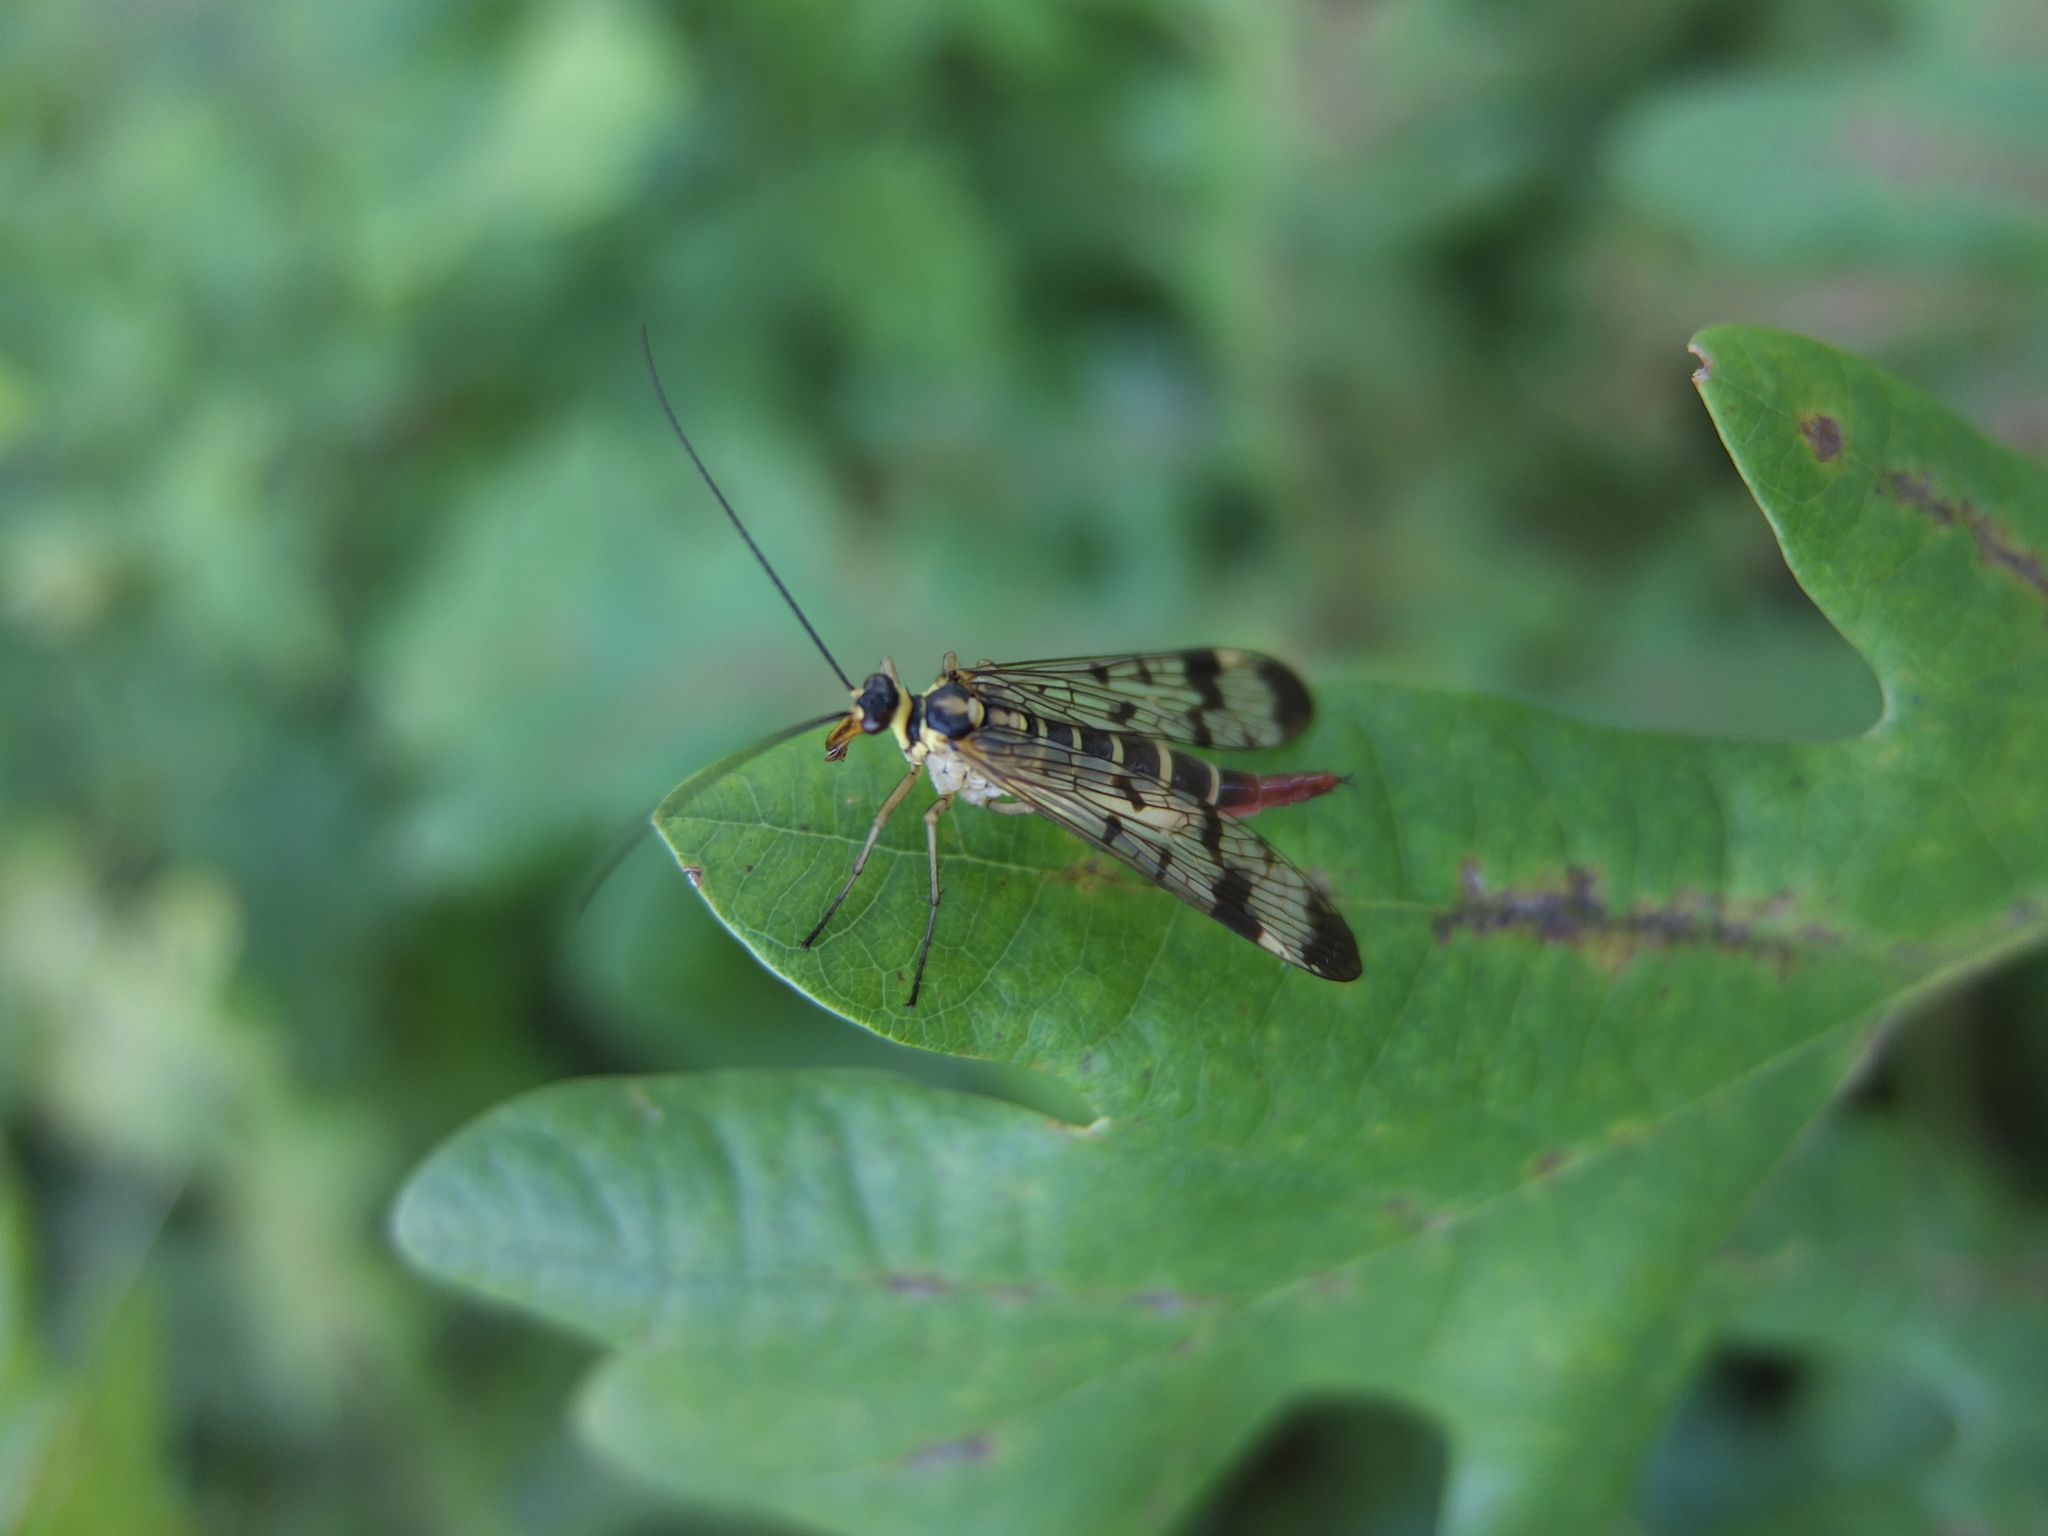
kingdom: Animalia
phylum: Arthropoda
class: Insecta
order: Mecoptera
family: Panorpidae
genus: Panorpa
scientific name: Panorpa communis
